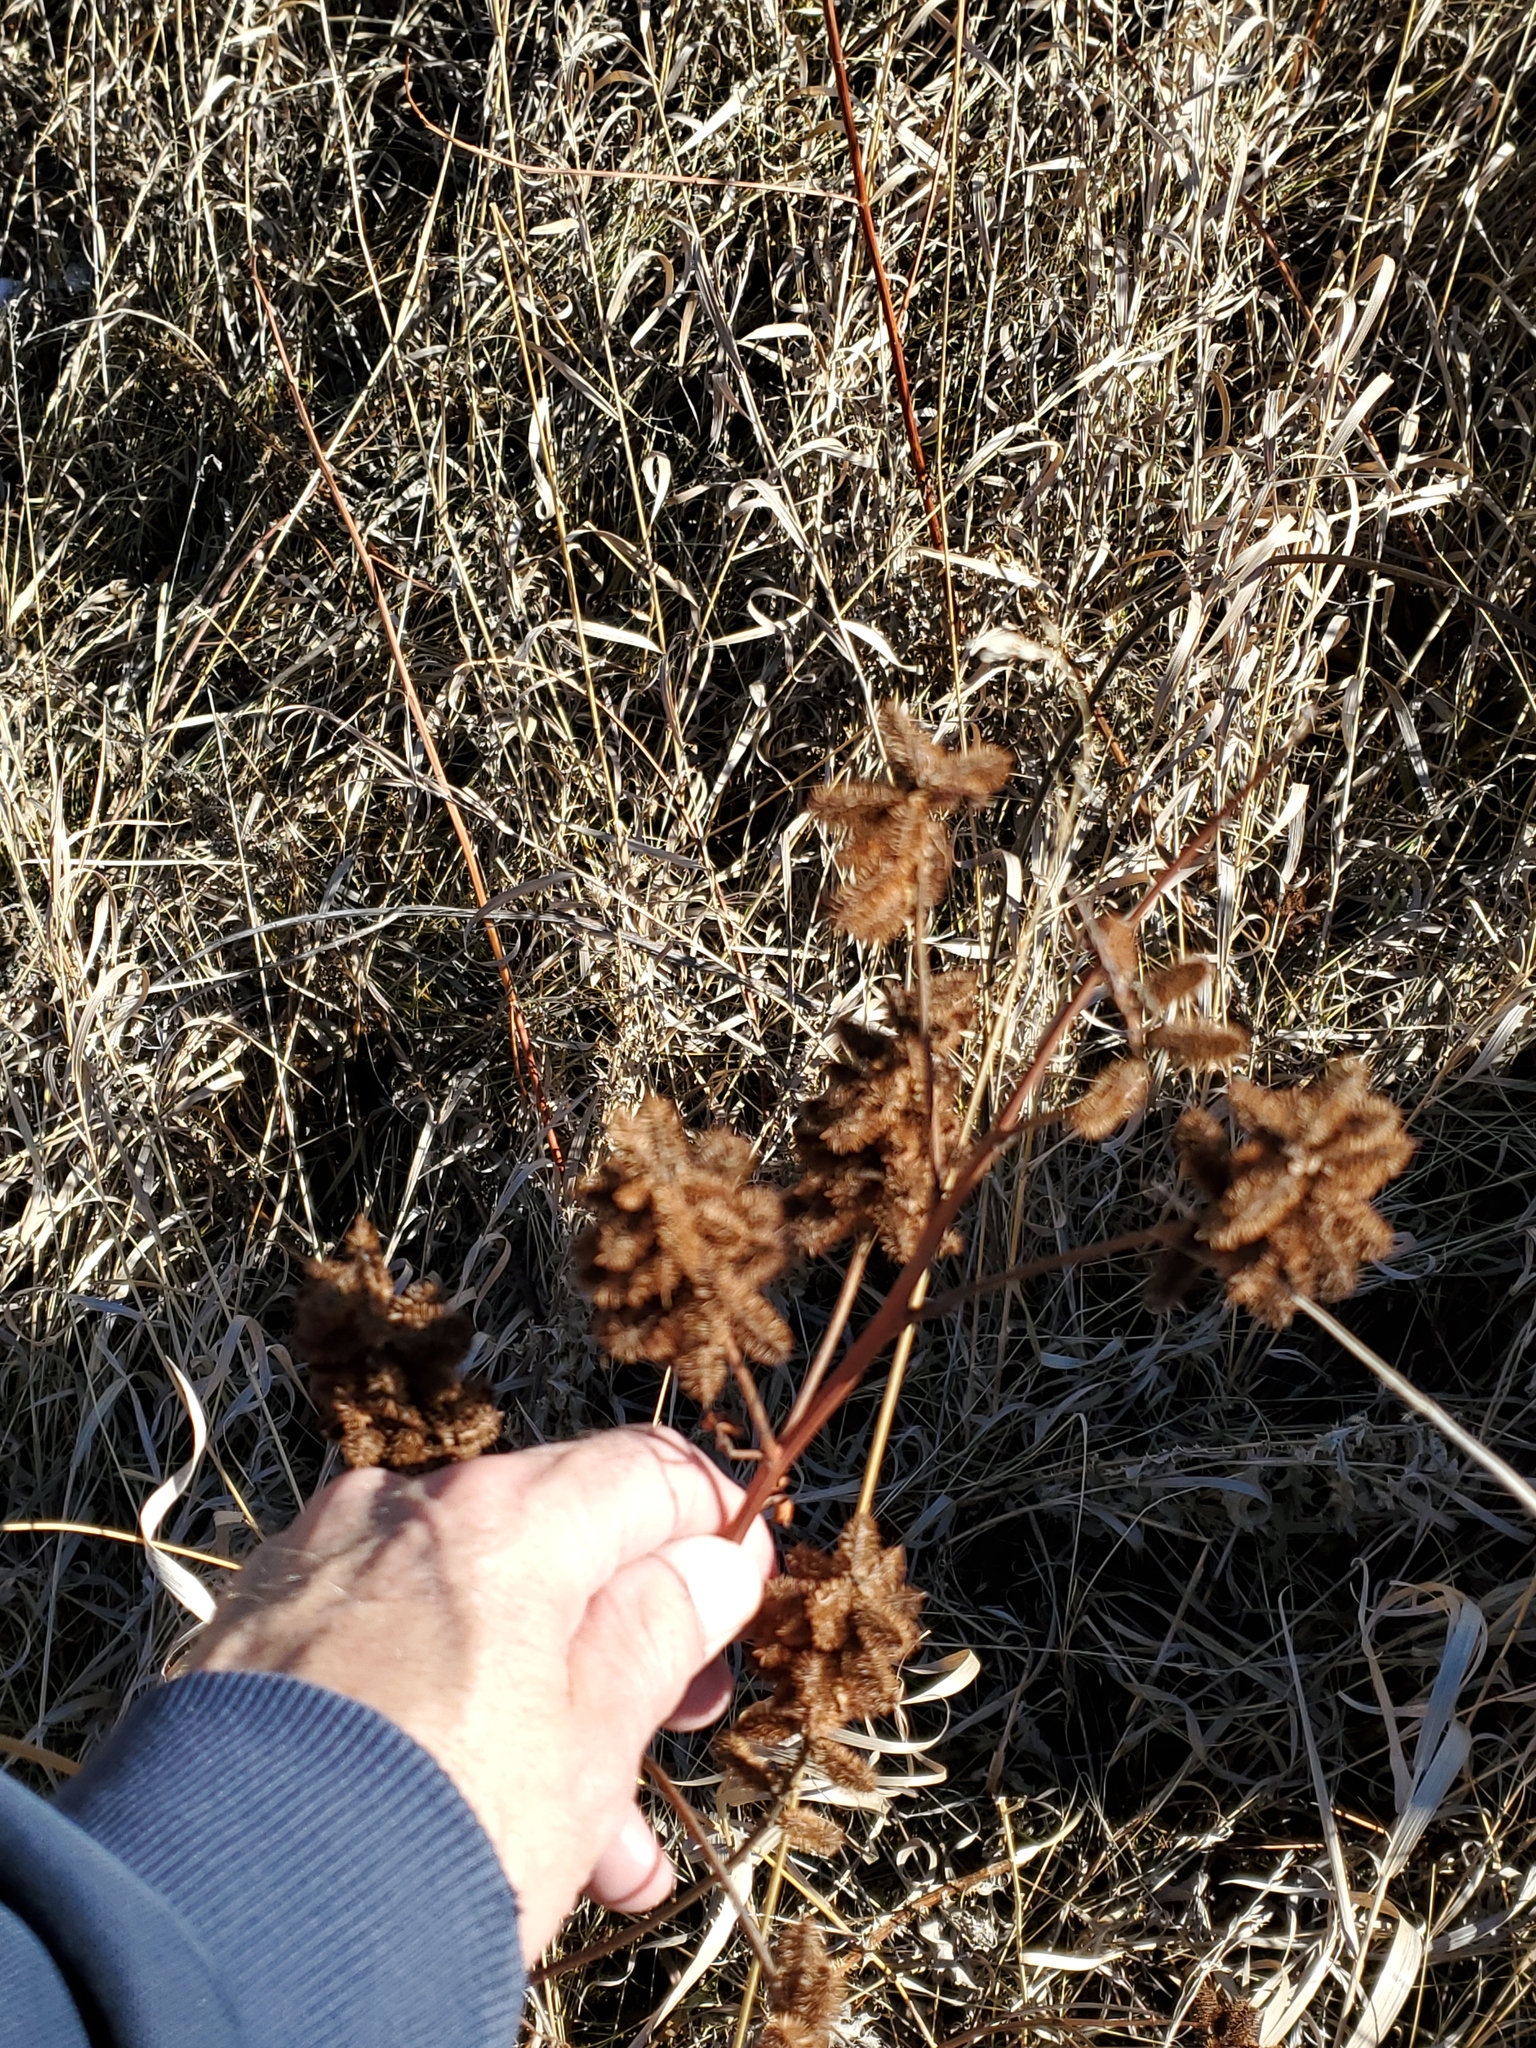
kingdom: Plantae
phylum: Tracheophyta
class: Magnoliopsida
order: Fabales
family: Fabaceae
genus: Glycyrrhiza
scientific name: Glycyrrhiza lepidota
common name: American liquorice
